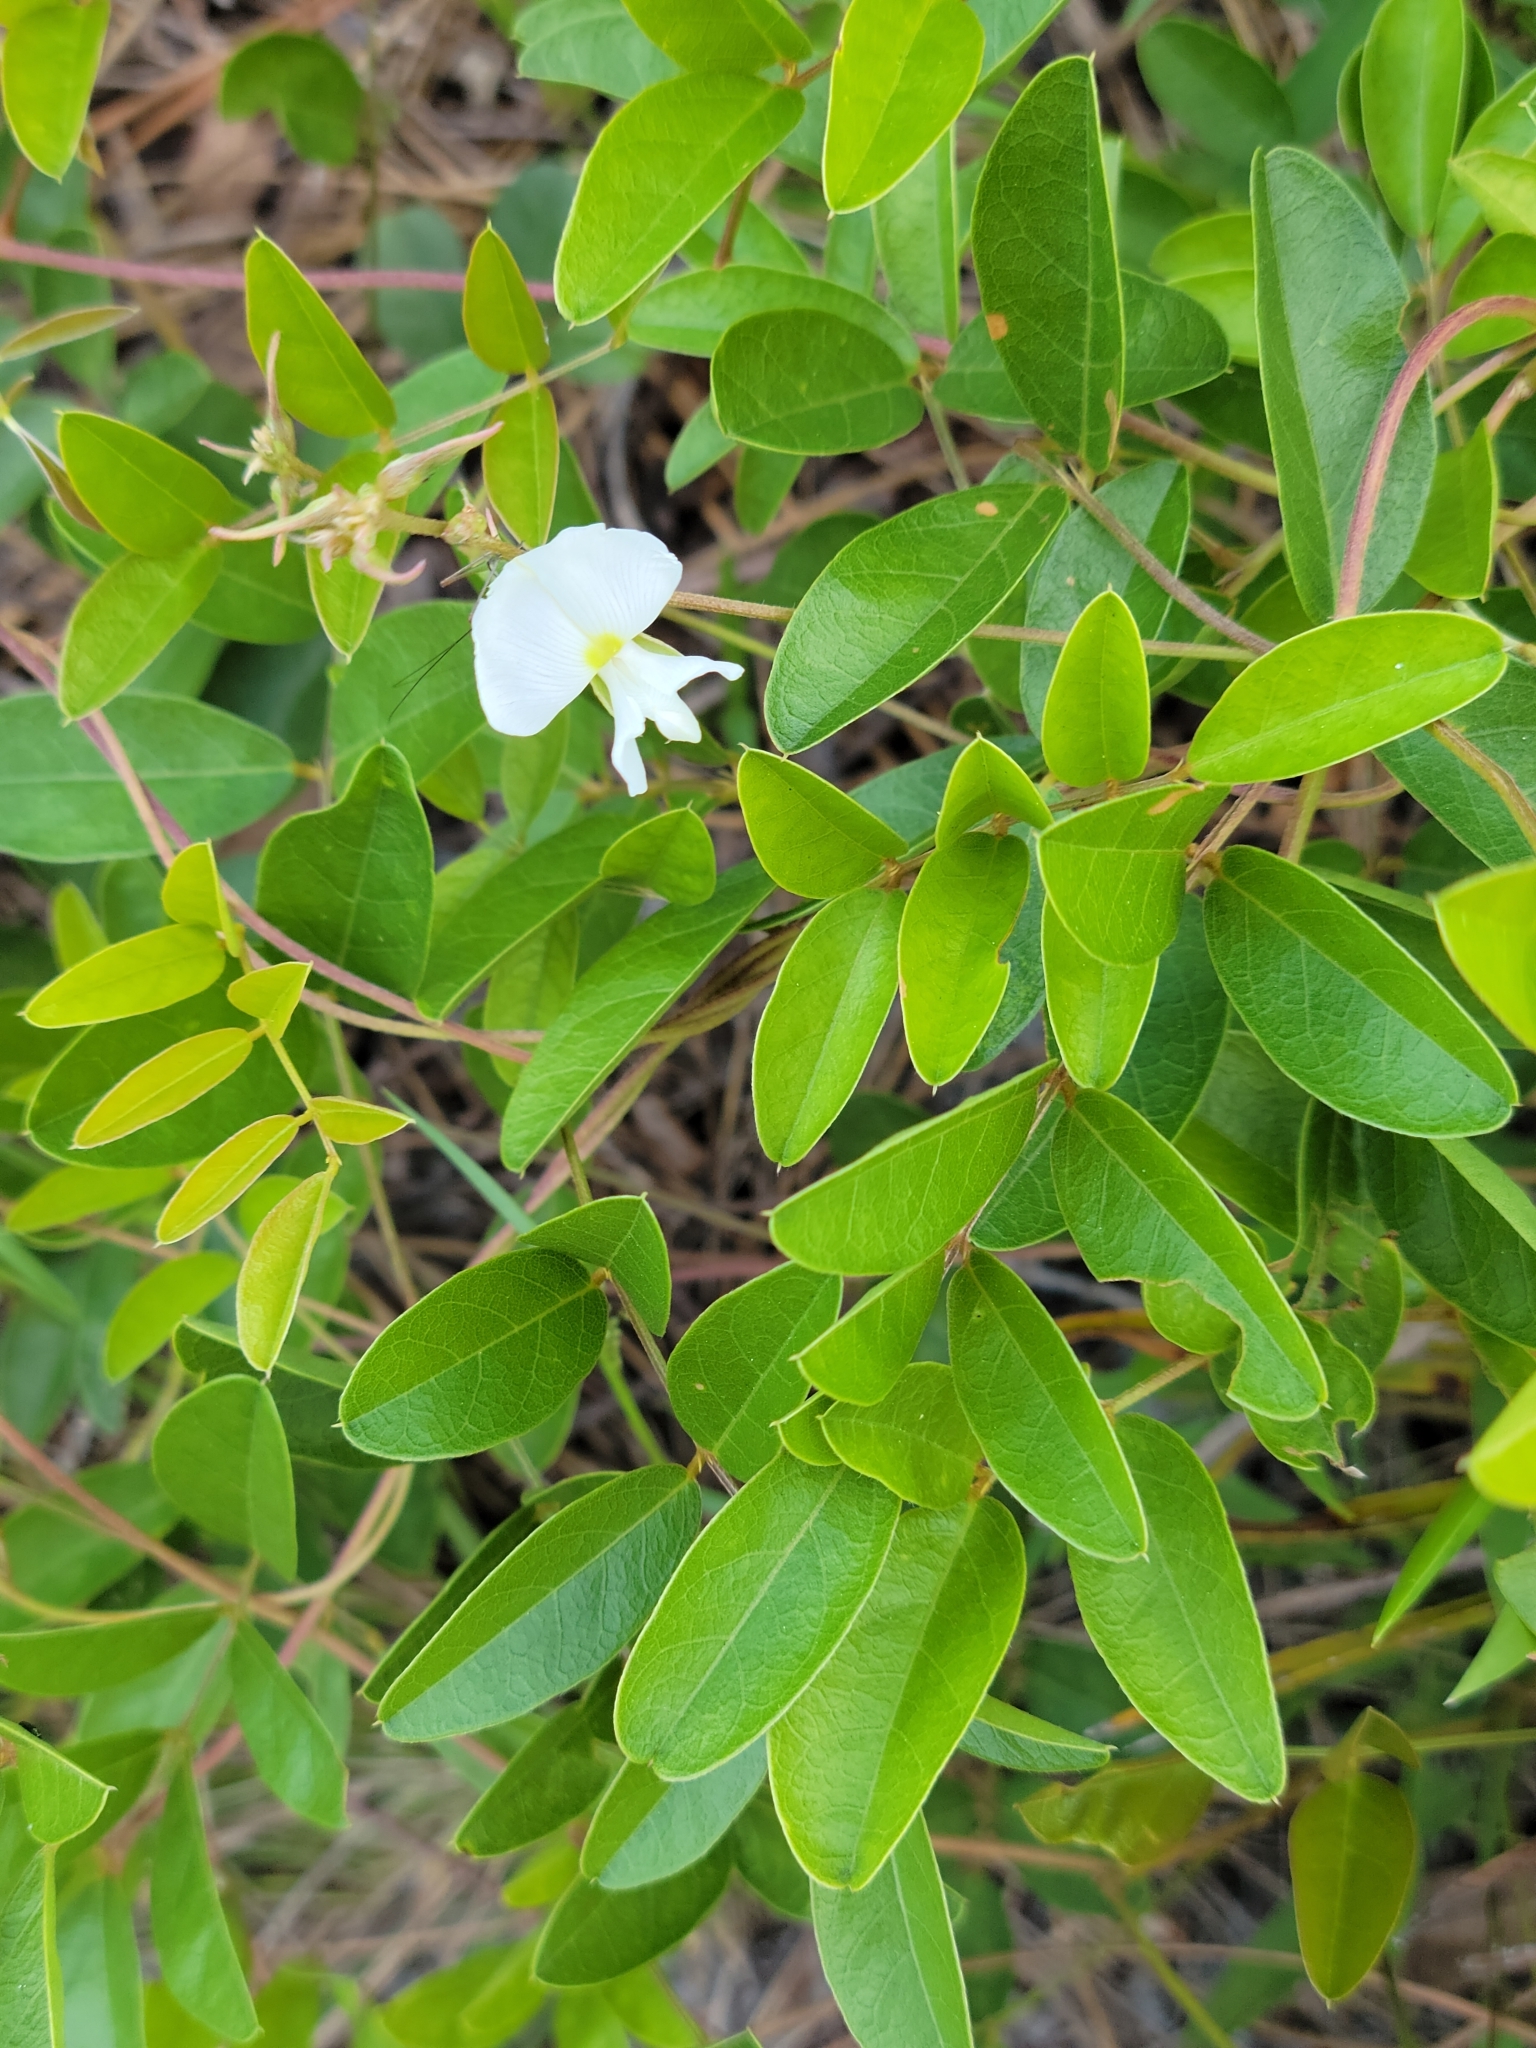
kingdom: Plantae
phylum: Tracheophyta
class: Magnoliopsida
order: Fabales
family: Fabaceae
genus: Galactia
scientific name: Galactia elliottii
